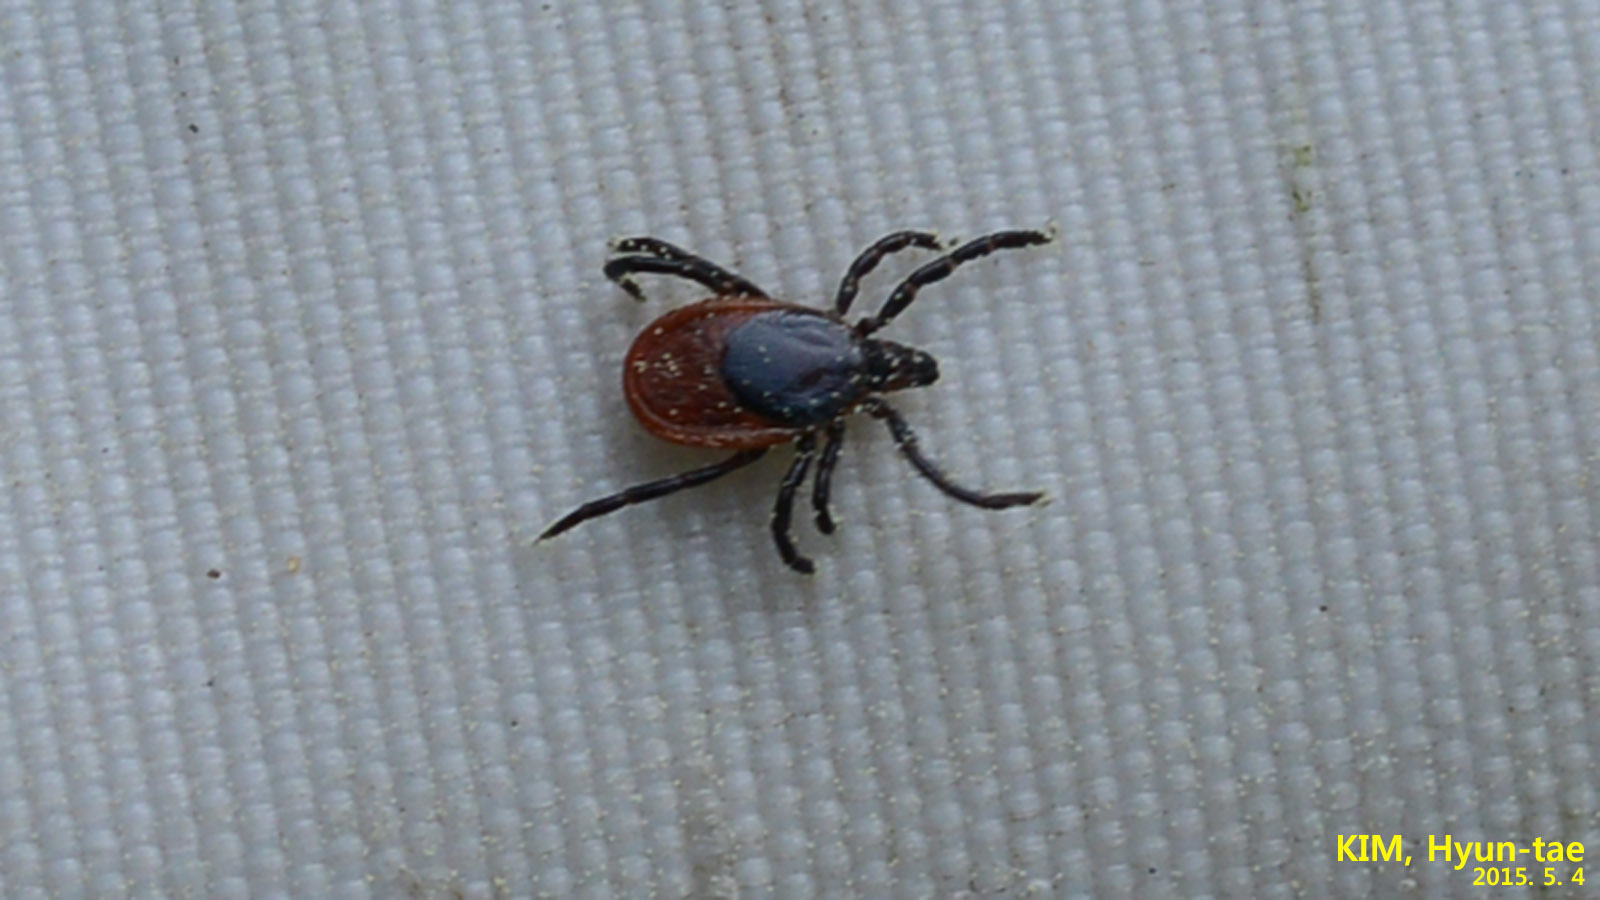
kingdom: Animalia
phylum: Arthropoda
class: Arachnida
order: Ixodida
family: Ixodidae
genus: Ixodes
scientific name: Ixodes nipponensis
